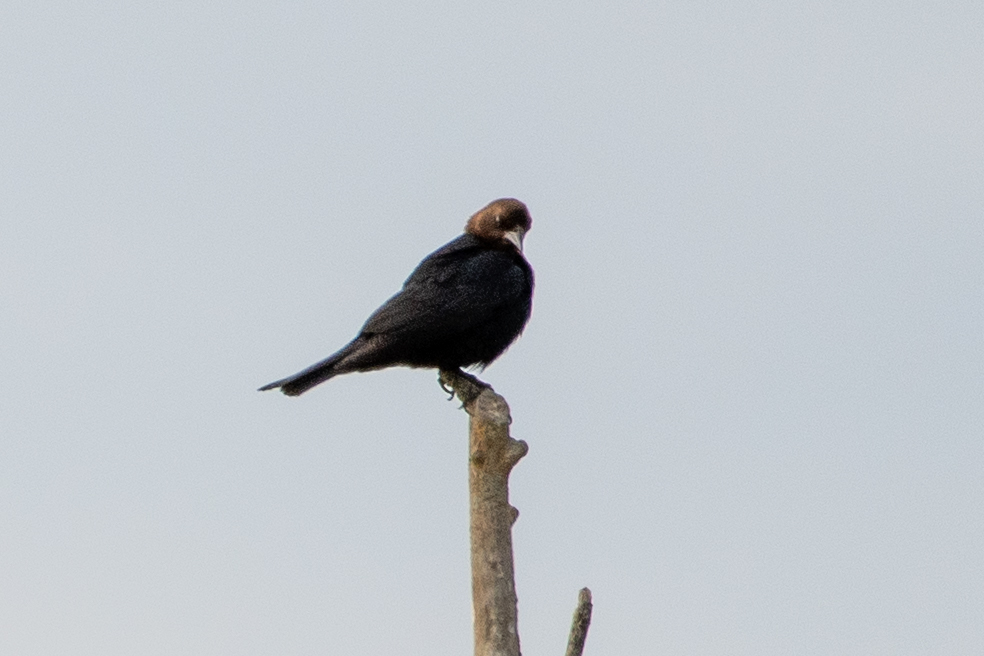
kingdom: Animalia
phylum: Chordata
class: Aves
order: Passeriformes
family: Icteridae
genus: Molothrus
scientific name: Molothrus ater
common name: Brown-headed cowbird
